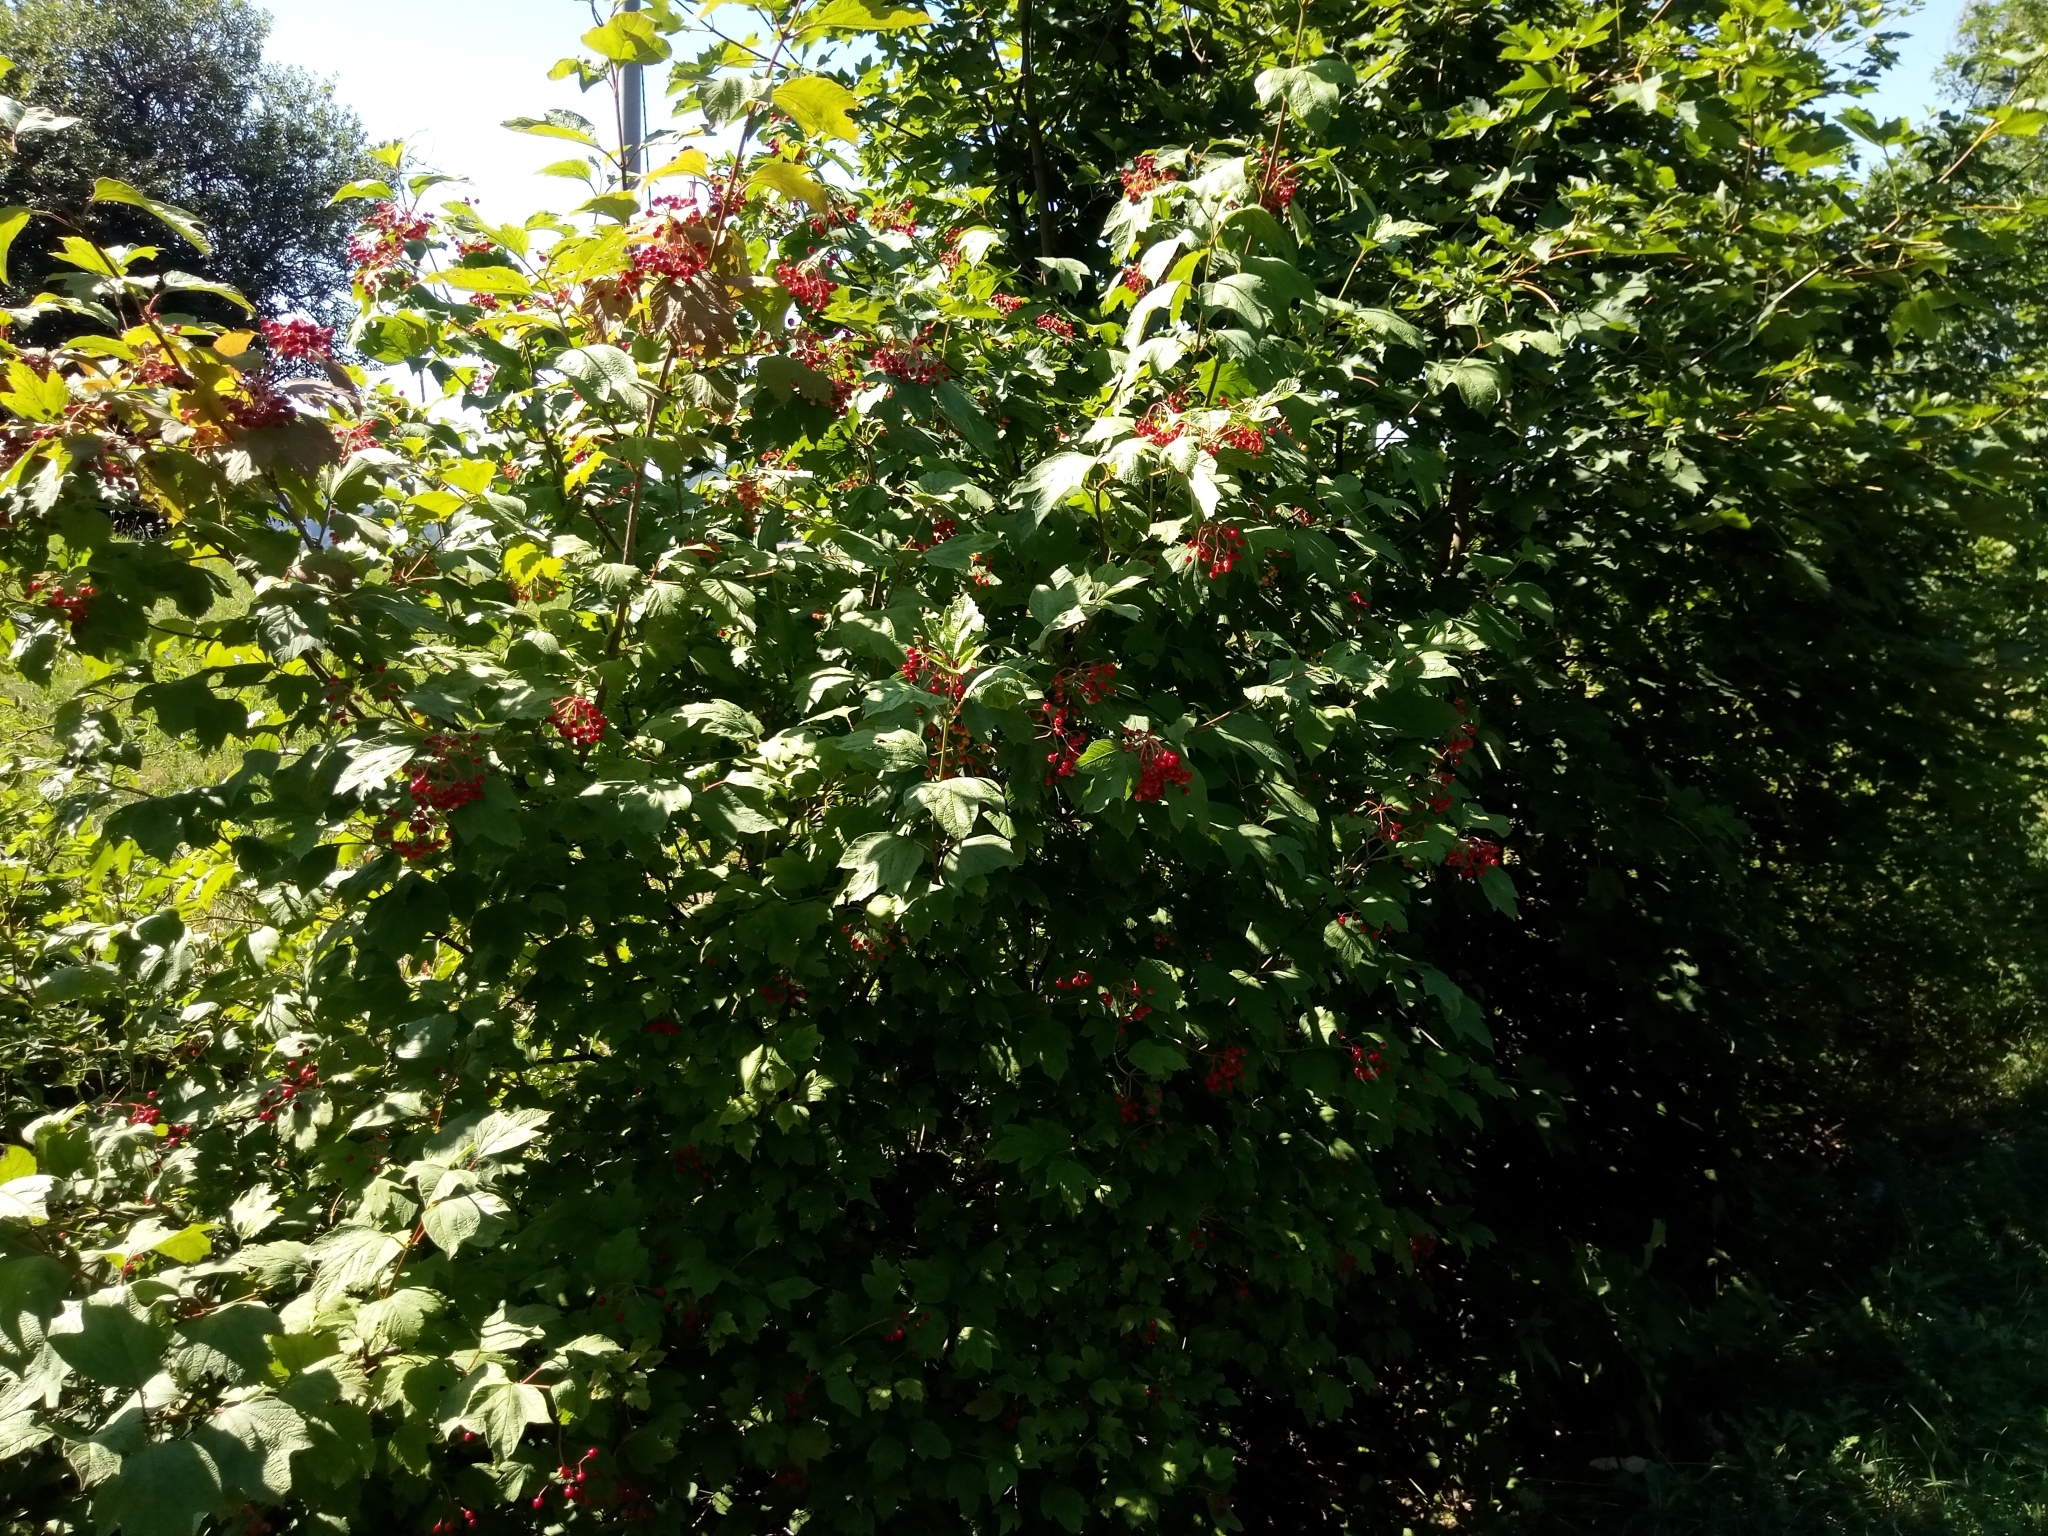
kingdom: Plantae
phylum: Tracheophyta
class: Magnoliopsida
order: Dipsacales
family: Viburnaceae
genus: Viburnum
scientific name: Viburnum opulus
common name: Guelder-rose
